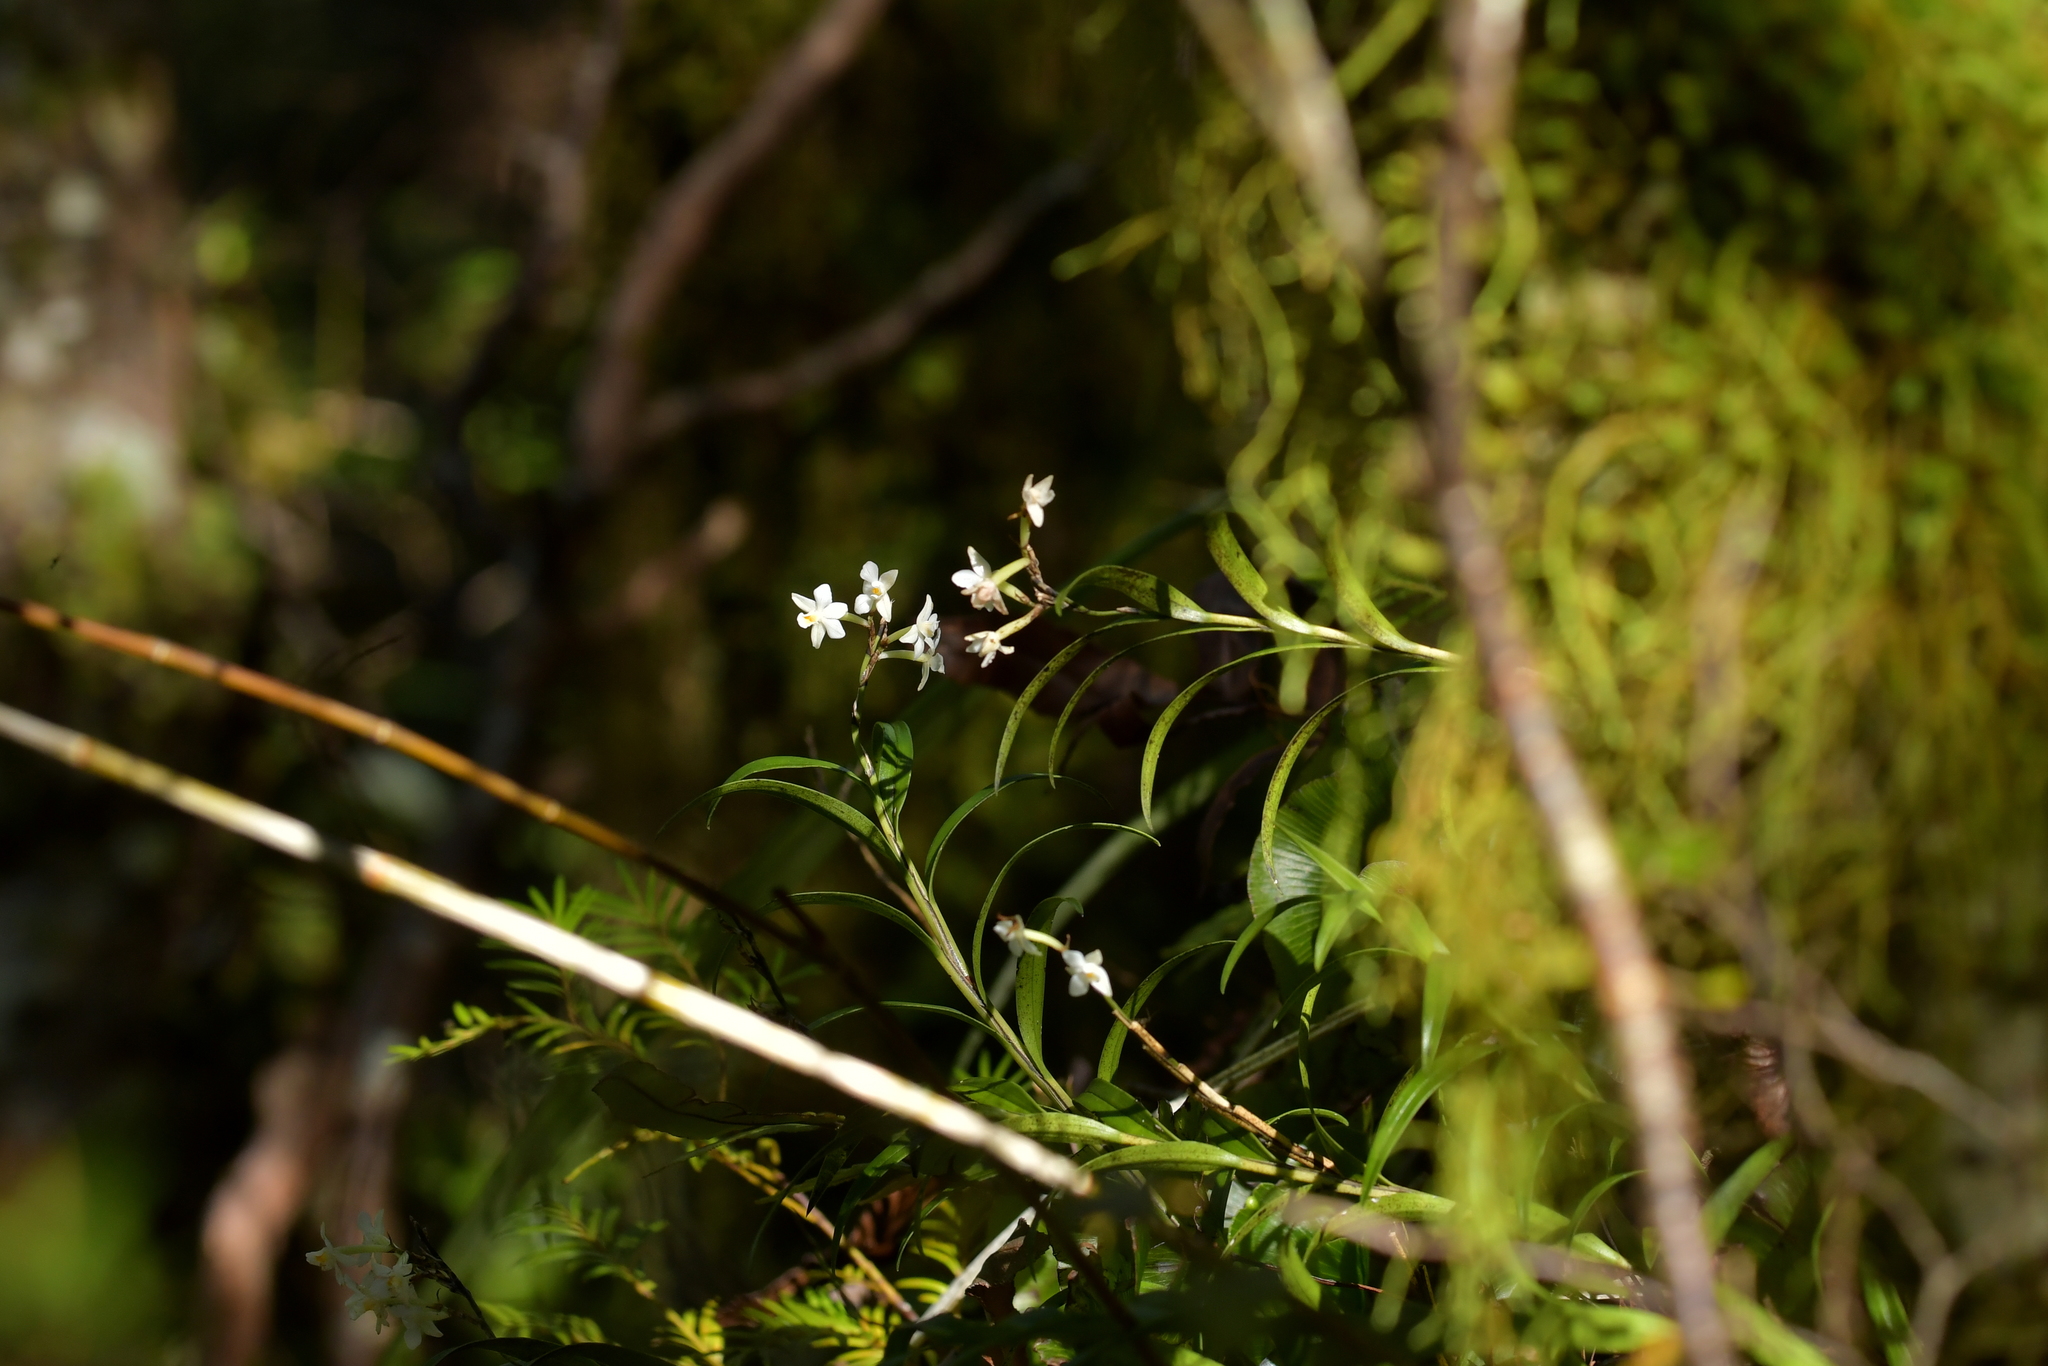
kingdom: Plantae
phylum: Tracheophyta
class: Liliopsida
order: Asparagales
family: Orchidaceae
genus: Earina
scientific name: Earina autumnalis
